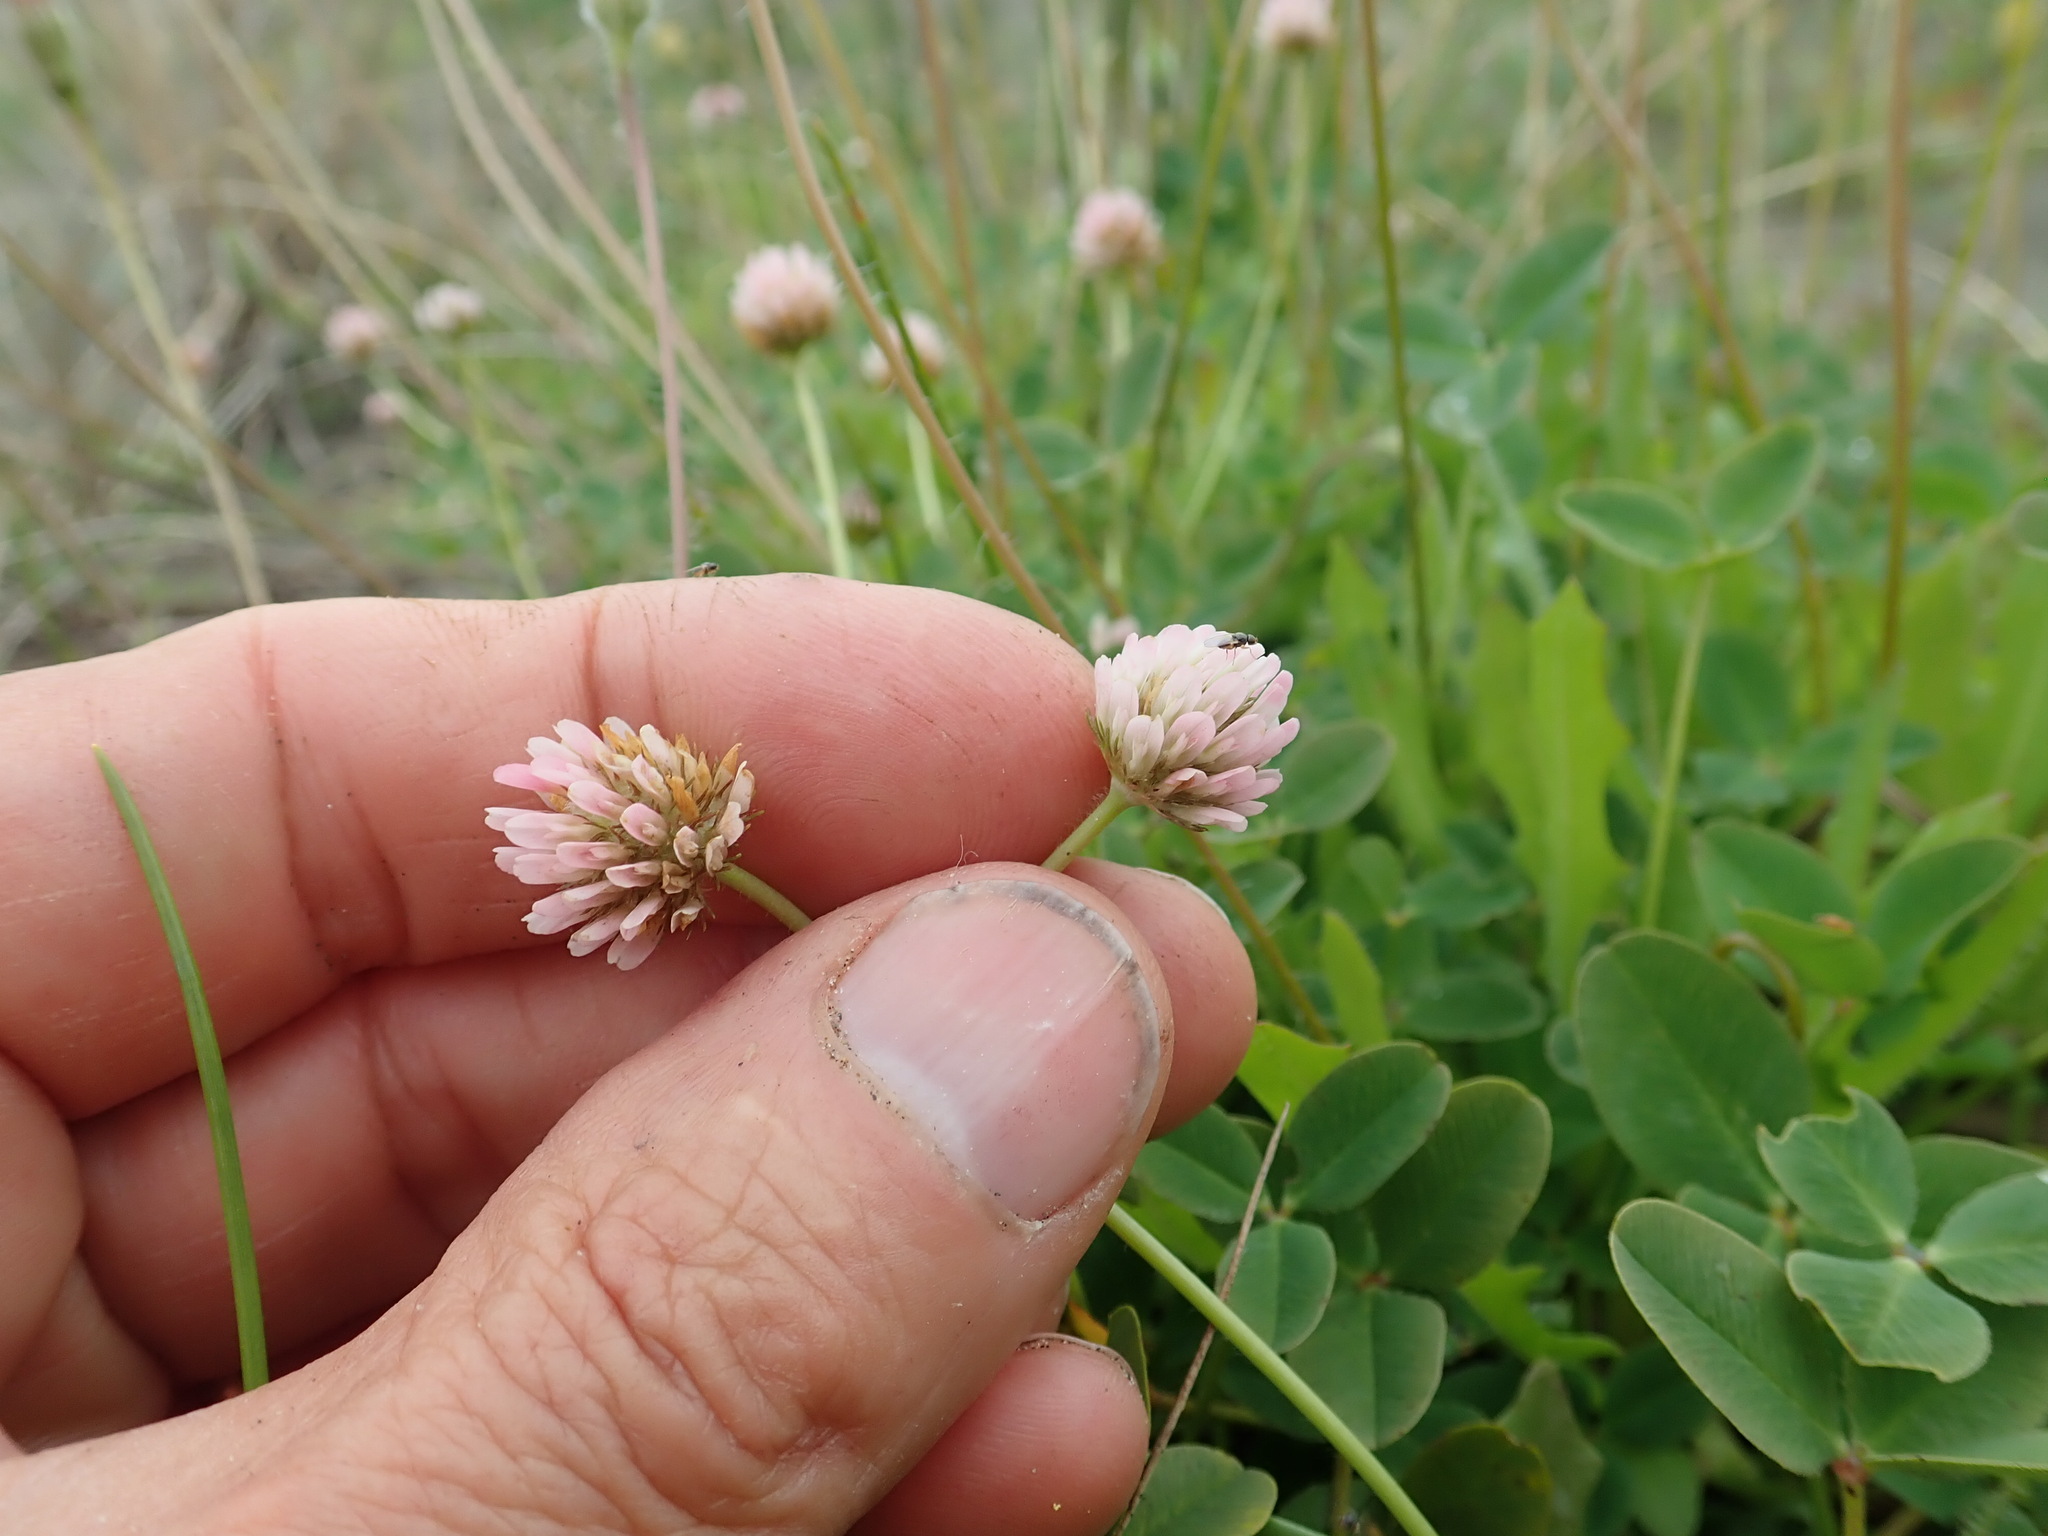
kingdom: Plantae
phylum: Tracheophyta
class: Magnoliopsida
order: Fabales
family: Fabaceae
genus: Trifolium
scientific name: Trifolium fragiferum
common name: Strawberry clover
